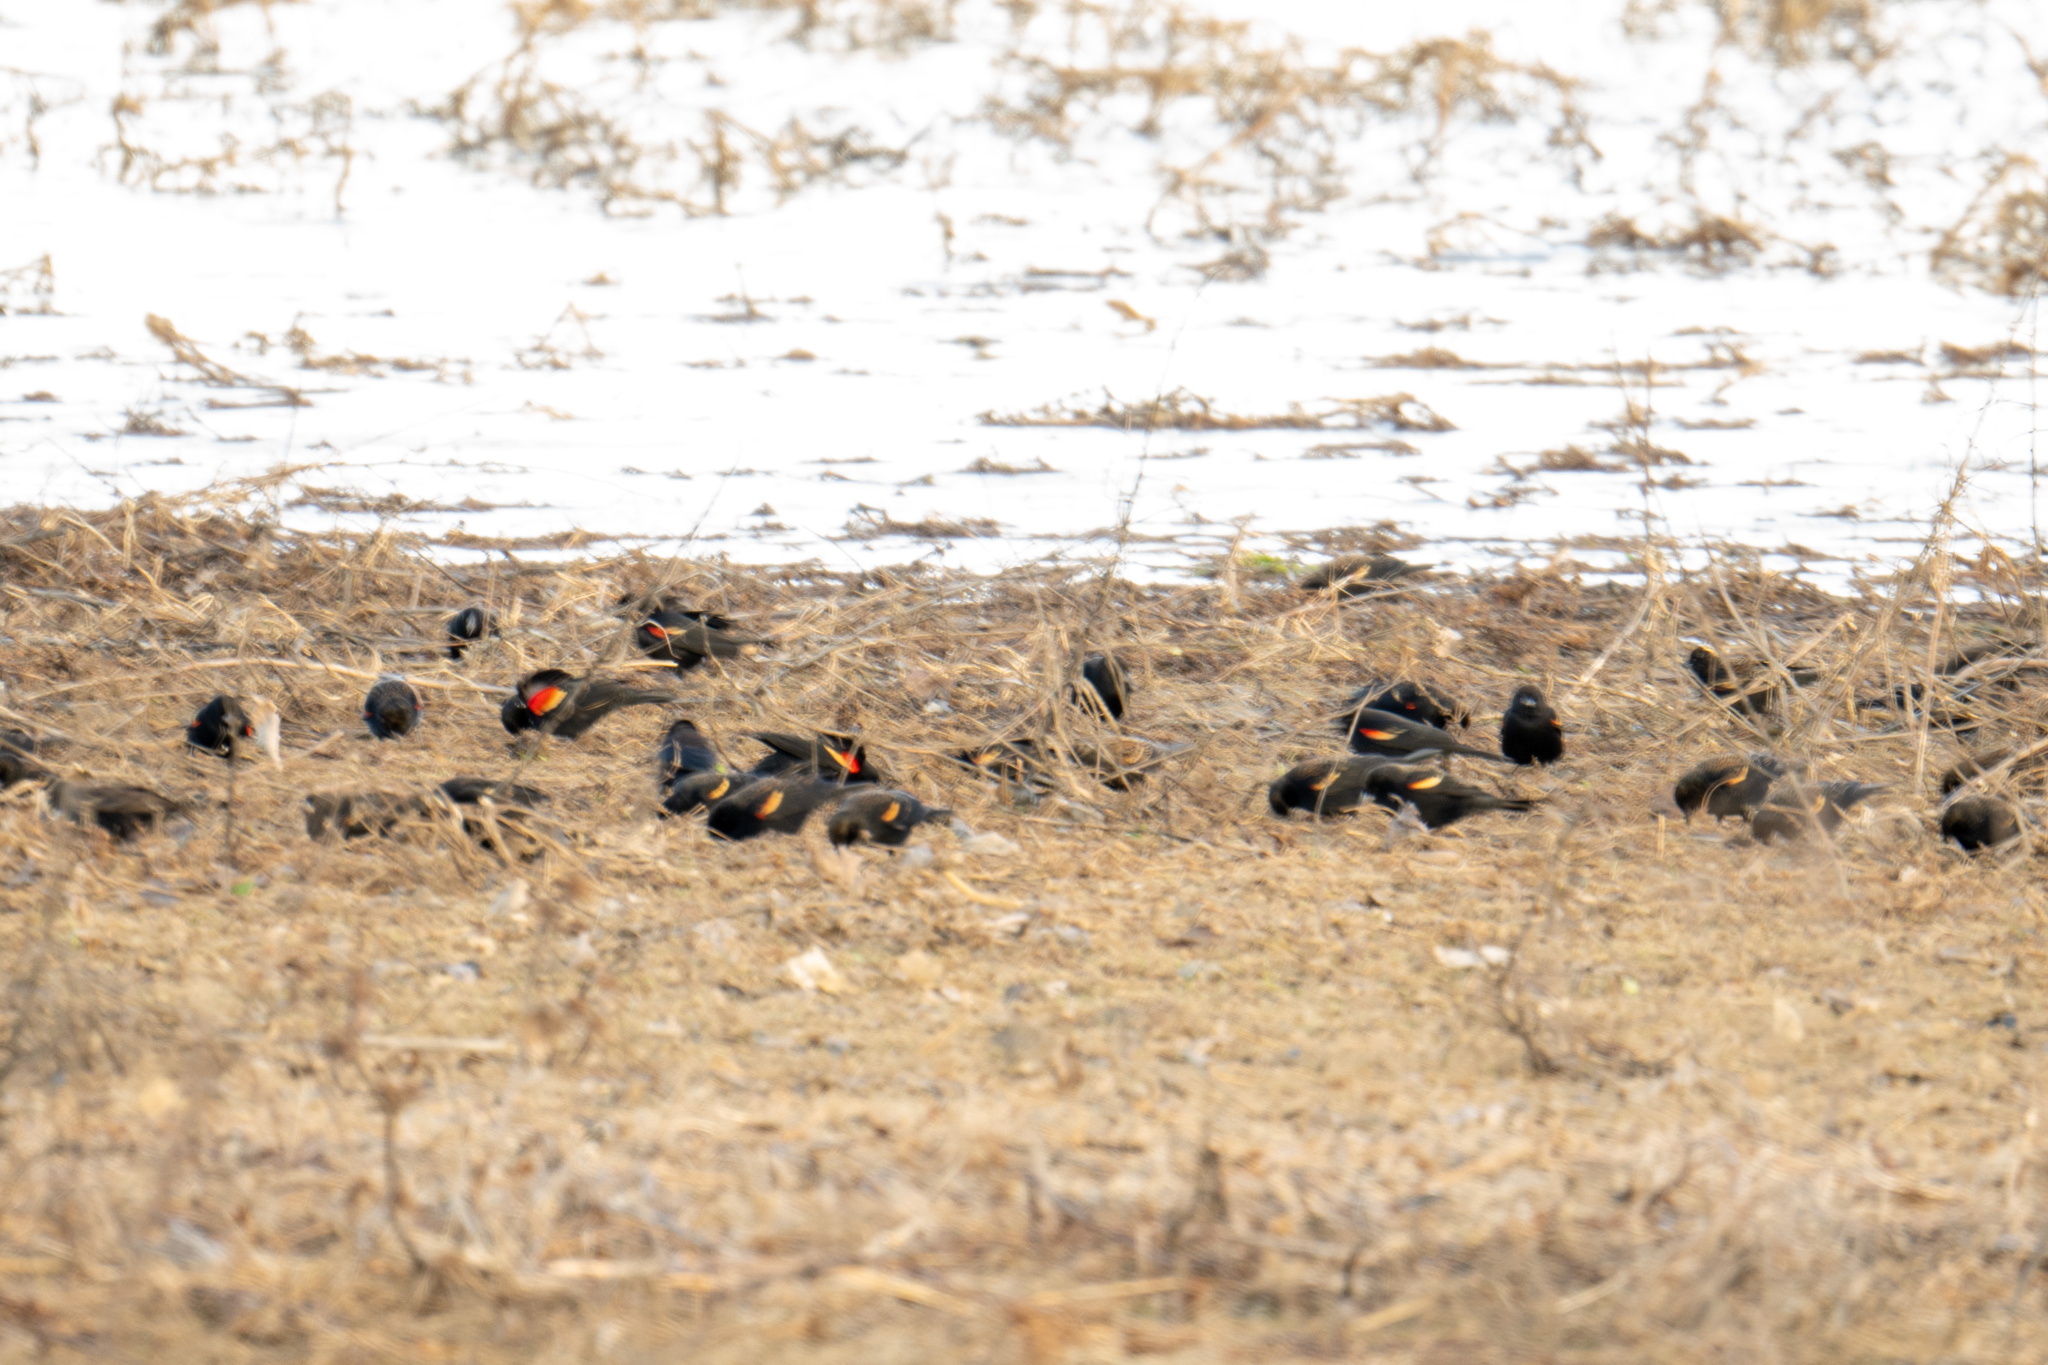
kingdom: Animalia
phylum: Chordata
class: Aves
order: Passeriformes
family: Icteridae
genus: Agelaius
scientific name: Agelaius phoeniceus
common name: Red-winged blackbird
